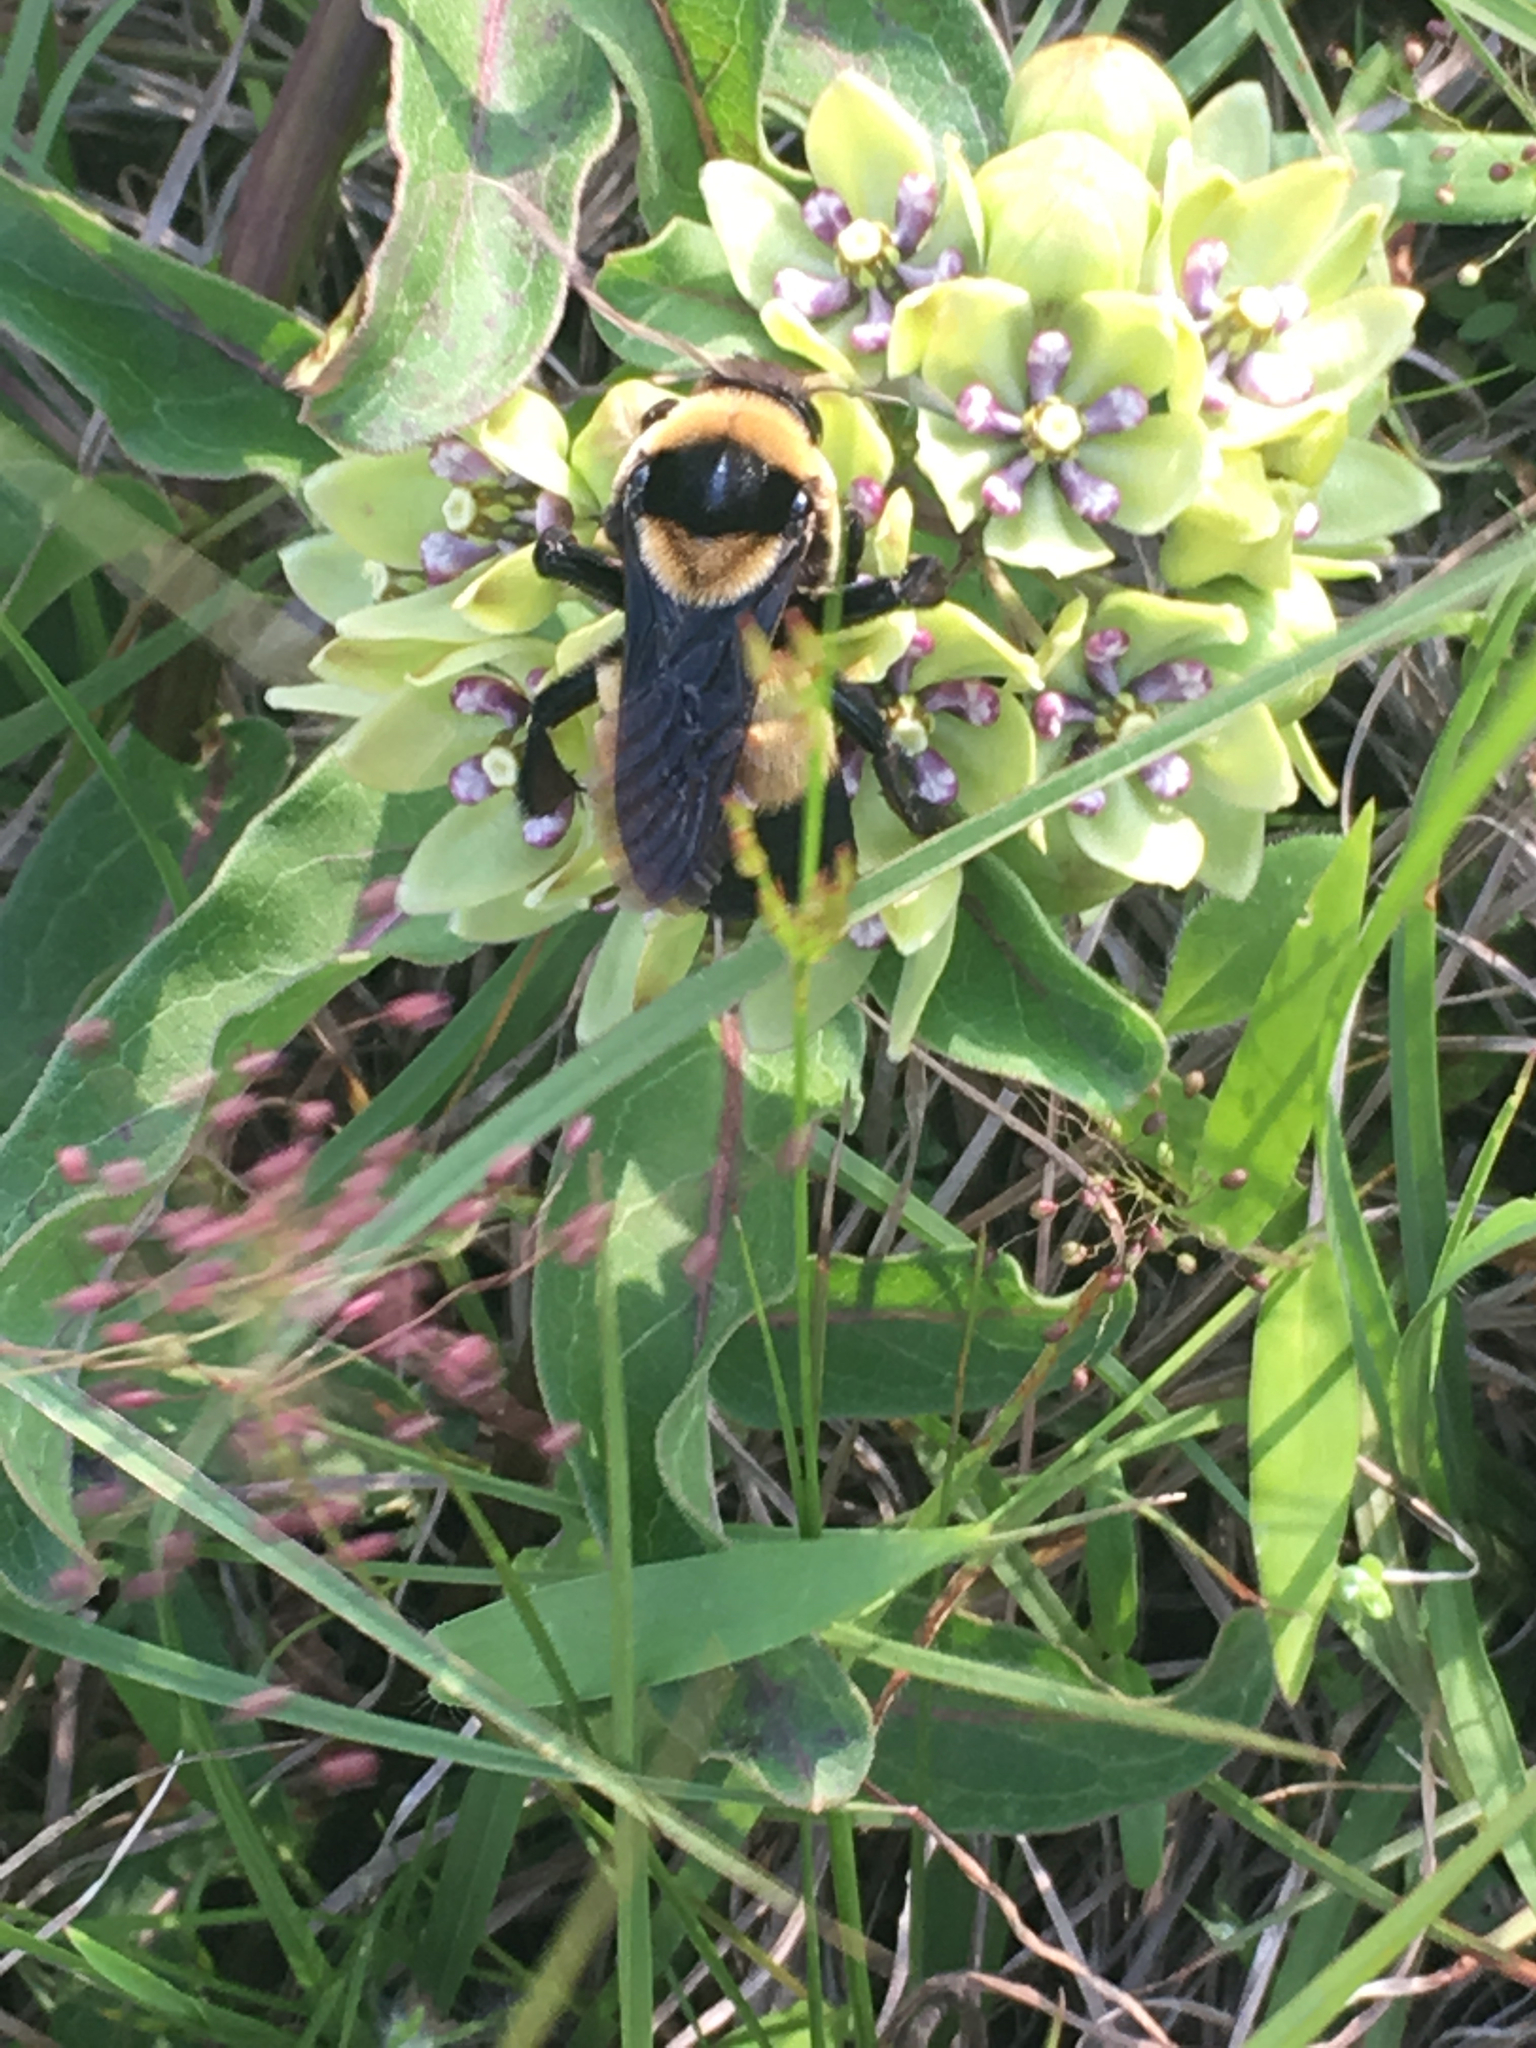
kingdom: Animalia
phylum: Arthropoda
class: Insecta
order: Hymenoptera
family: Apidae
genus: Bombus
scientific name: Bombus fraternus
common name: Southern plains bumble bee
